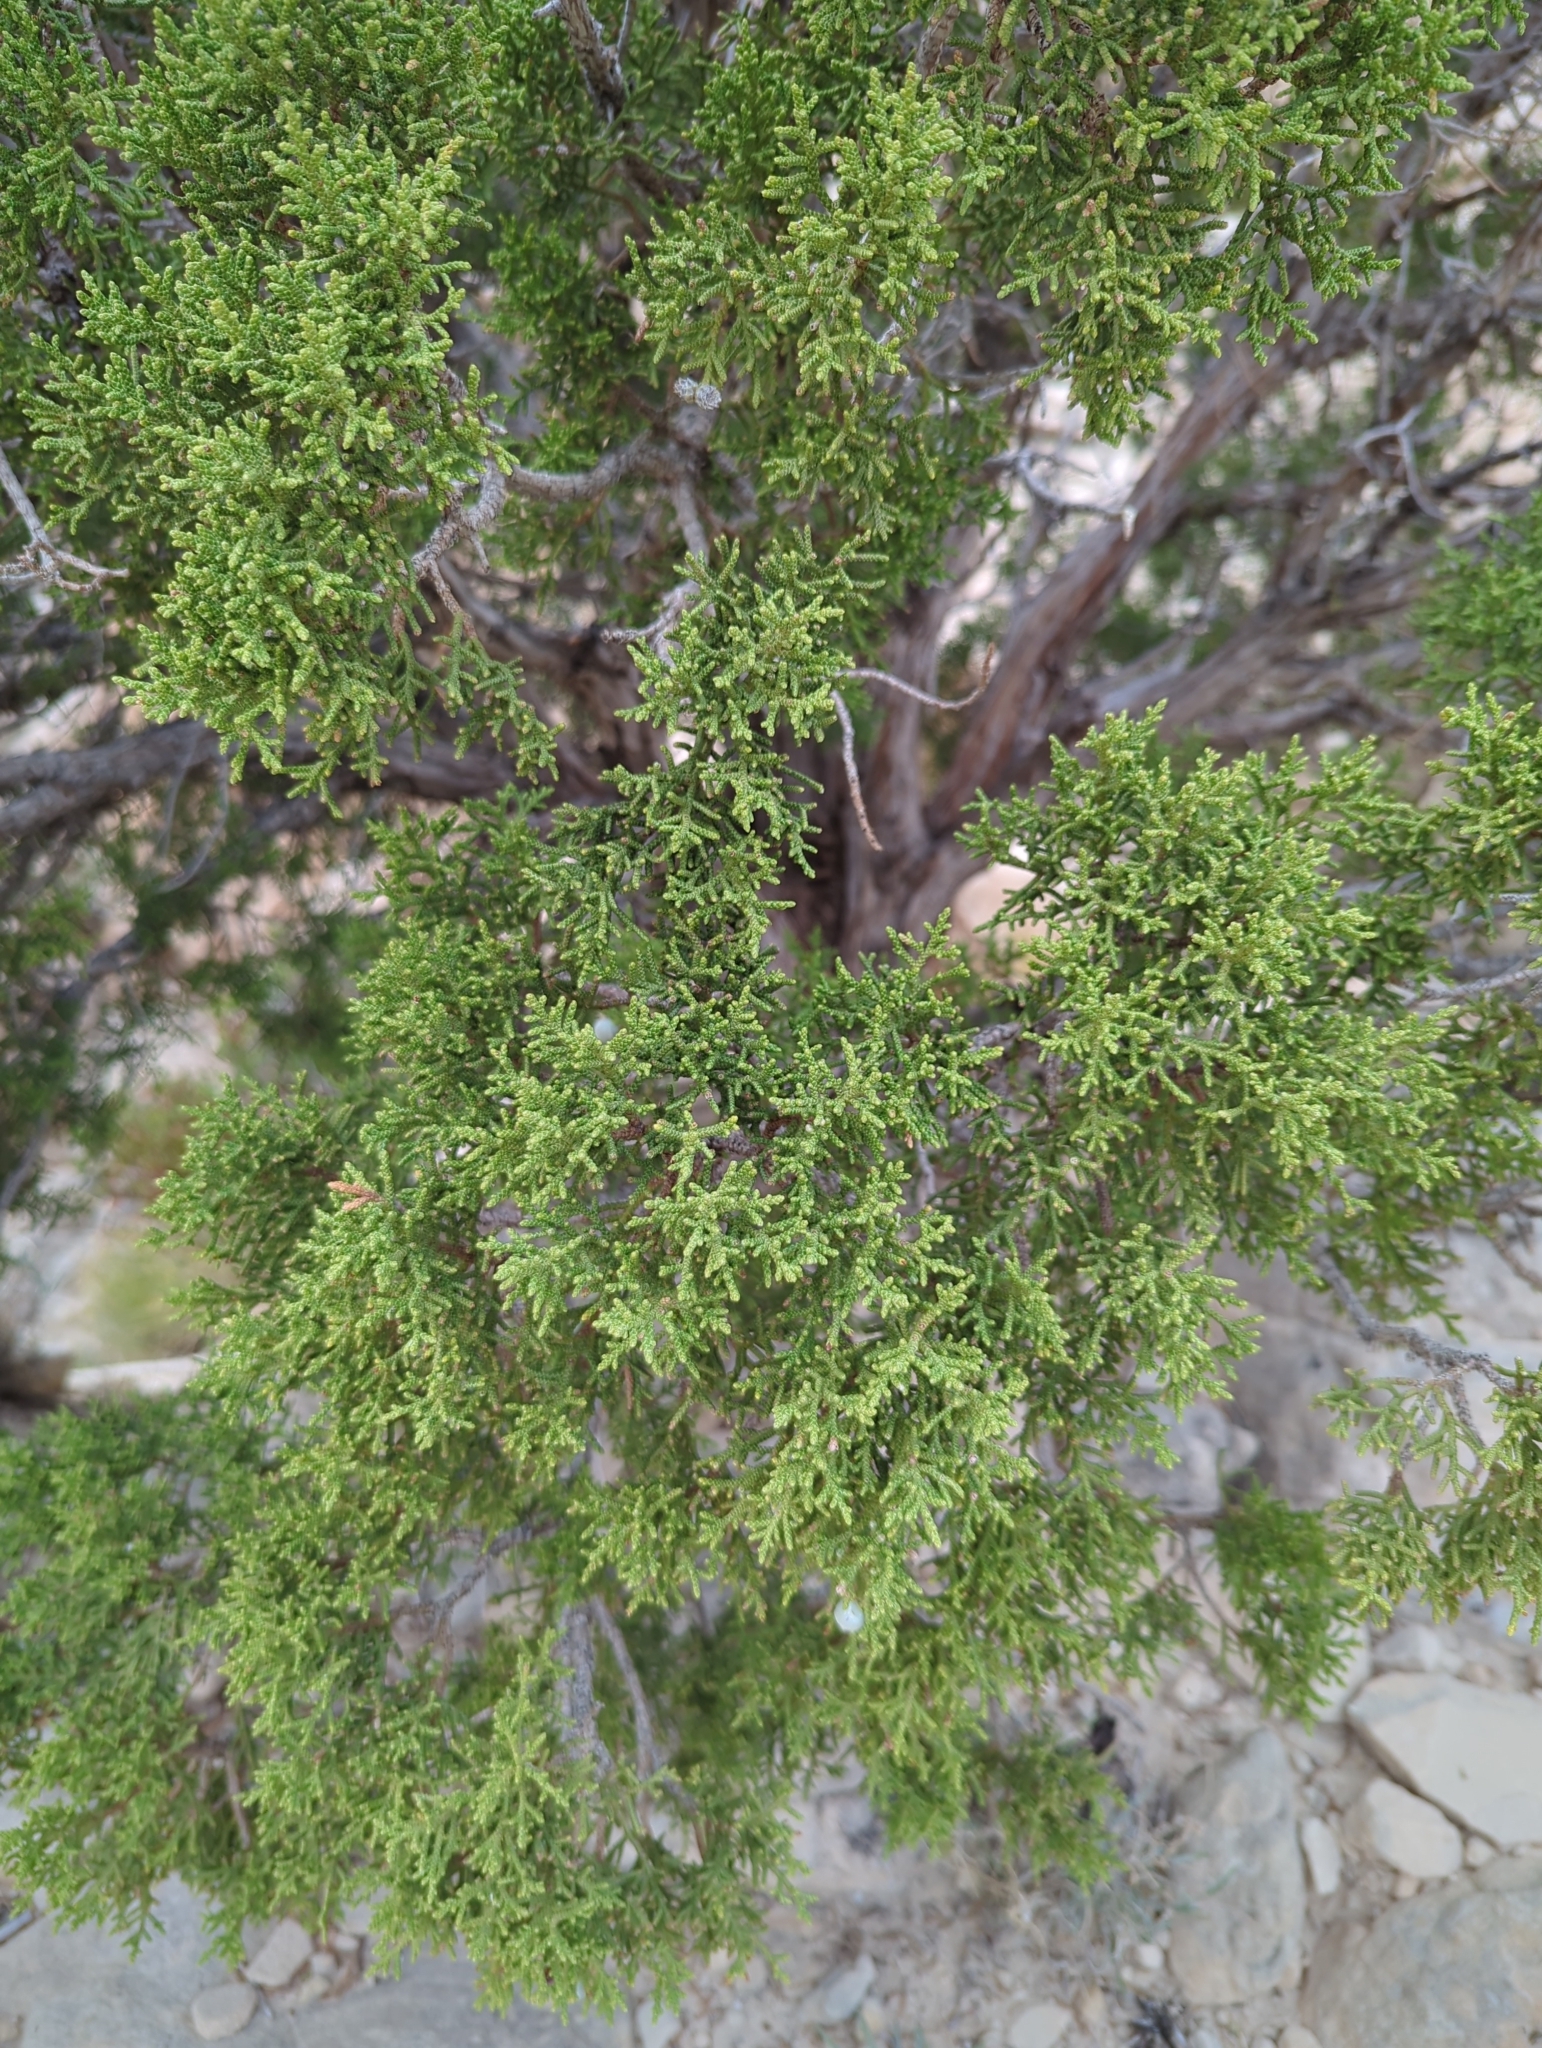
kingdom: Plantae
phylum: Tracheophyta
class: Pinopsida
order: Pinales
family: Cupressaceae
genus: Juniperus
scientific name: Juniperus osteosperma
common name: Utah juniper
